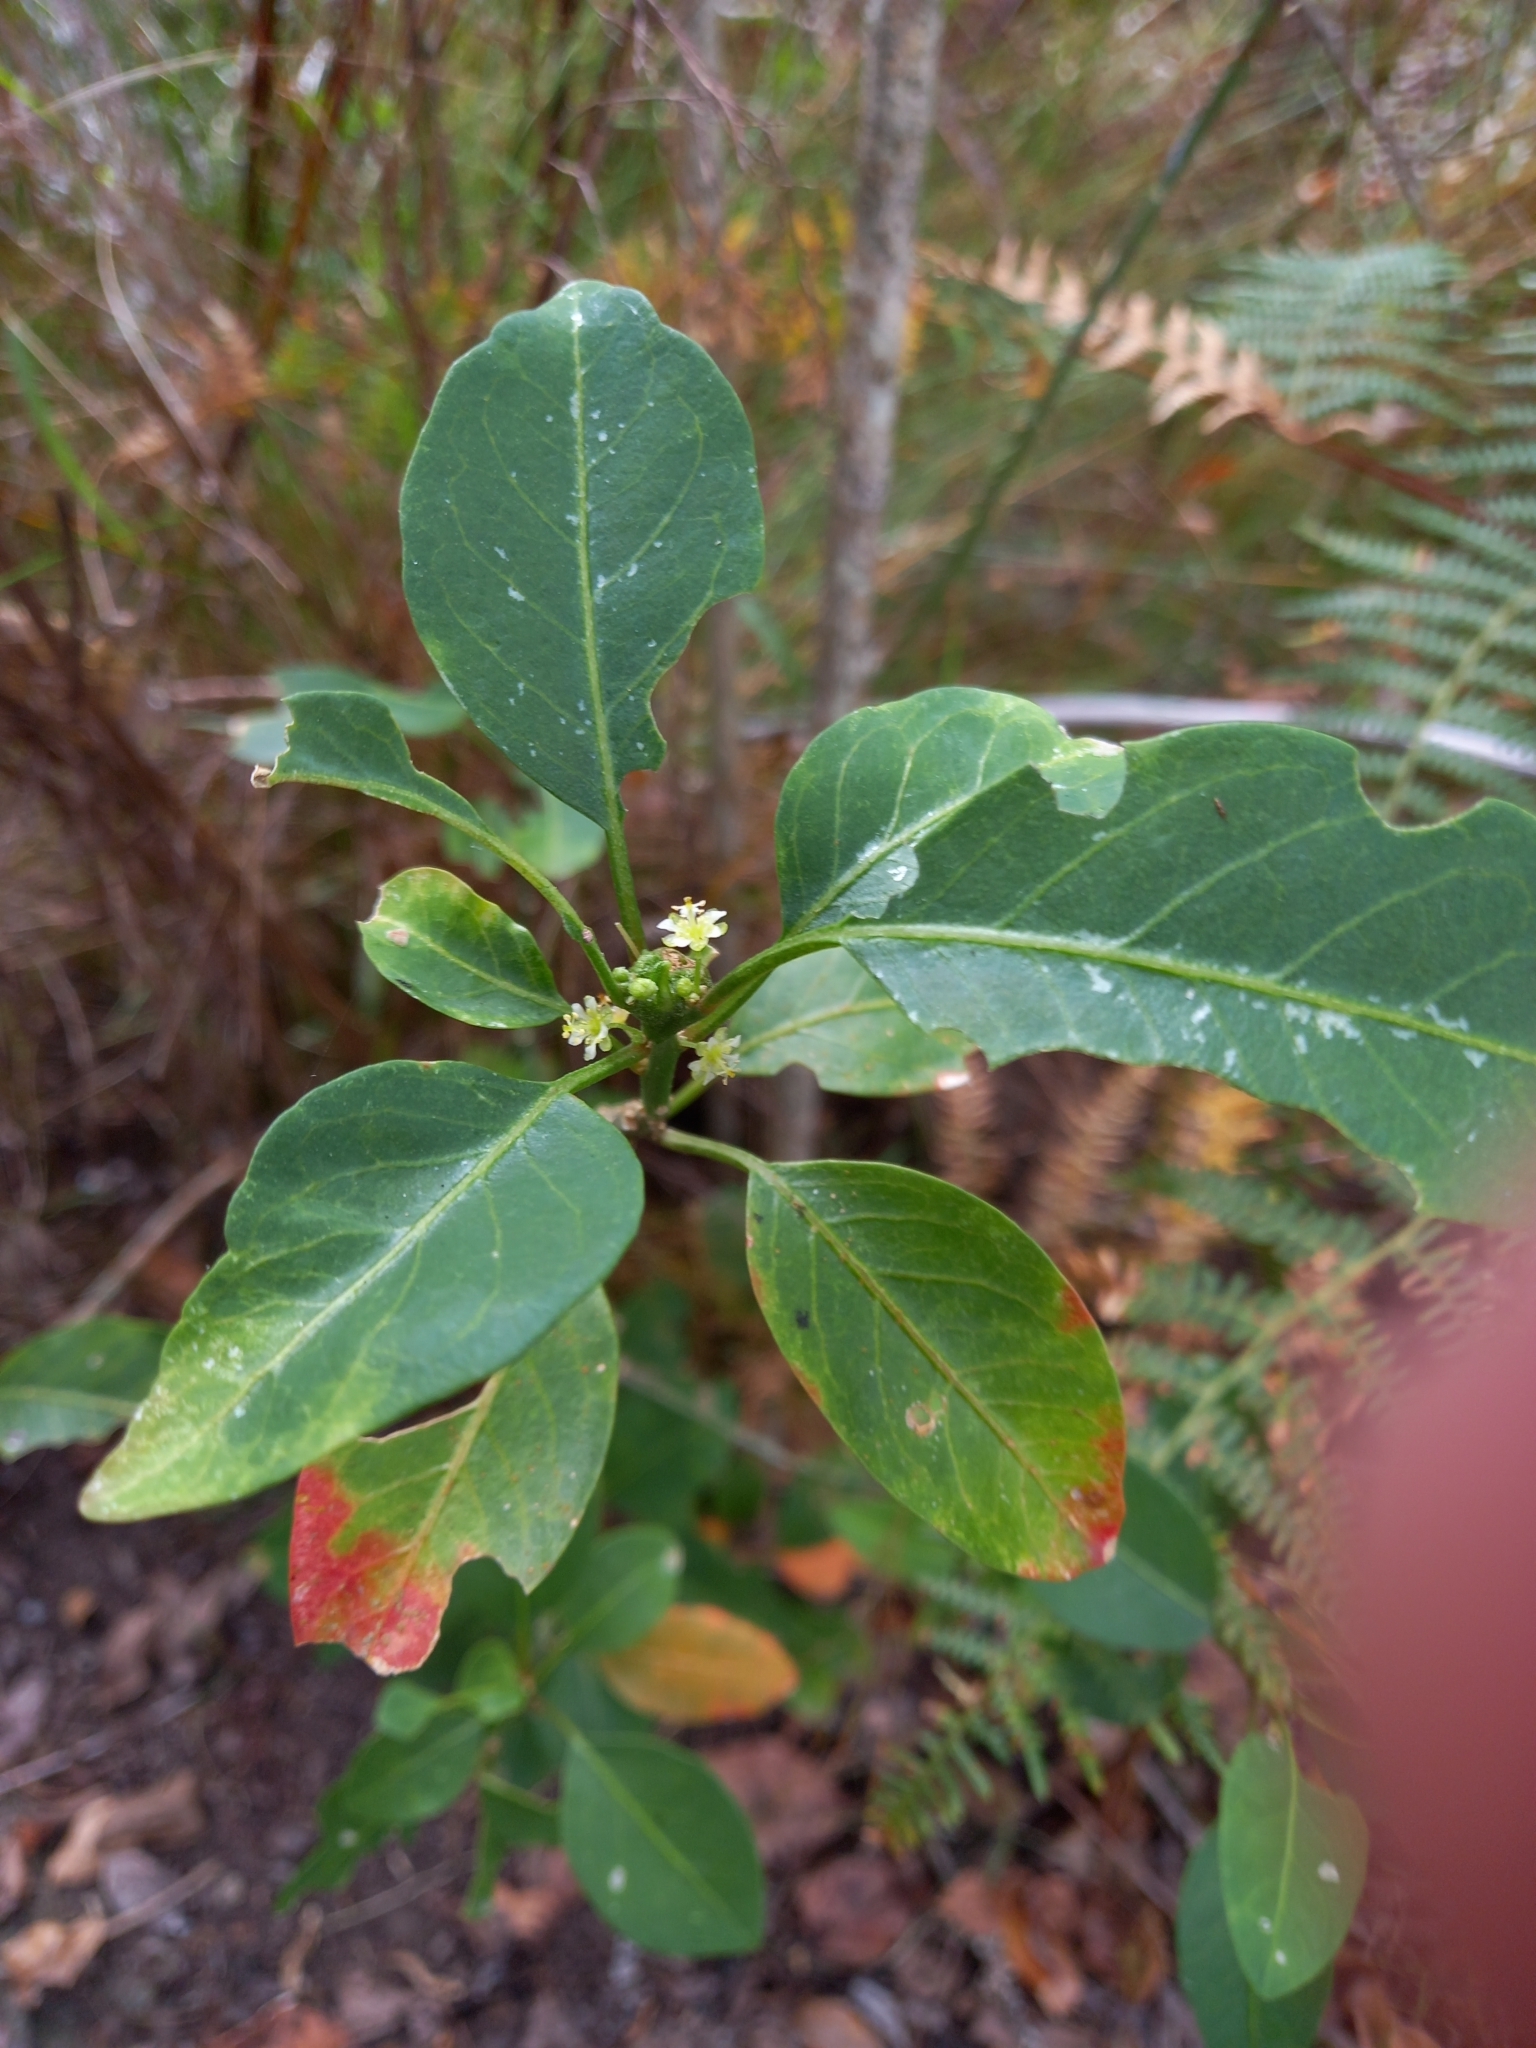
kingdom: Plantae
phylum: Tracheophyta
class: Magnoliopsida
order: Malpighiales
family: Peraceae
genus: Clutia
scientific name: Clutia pulchella
